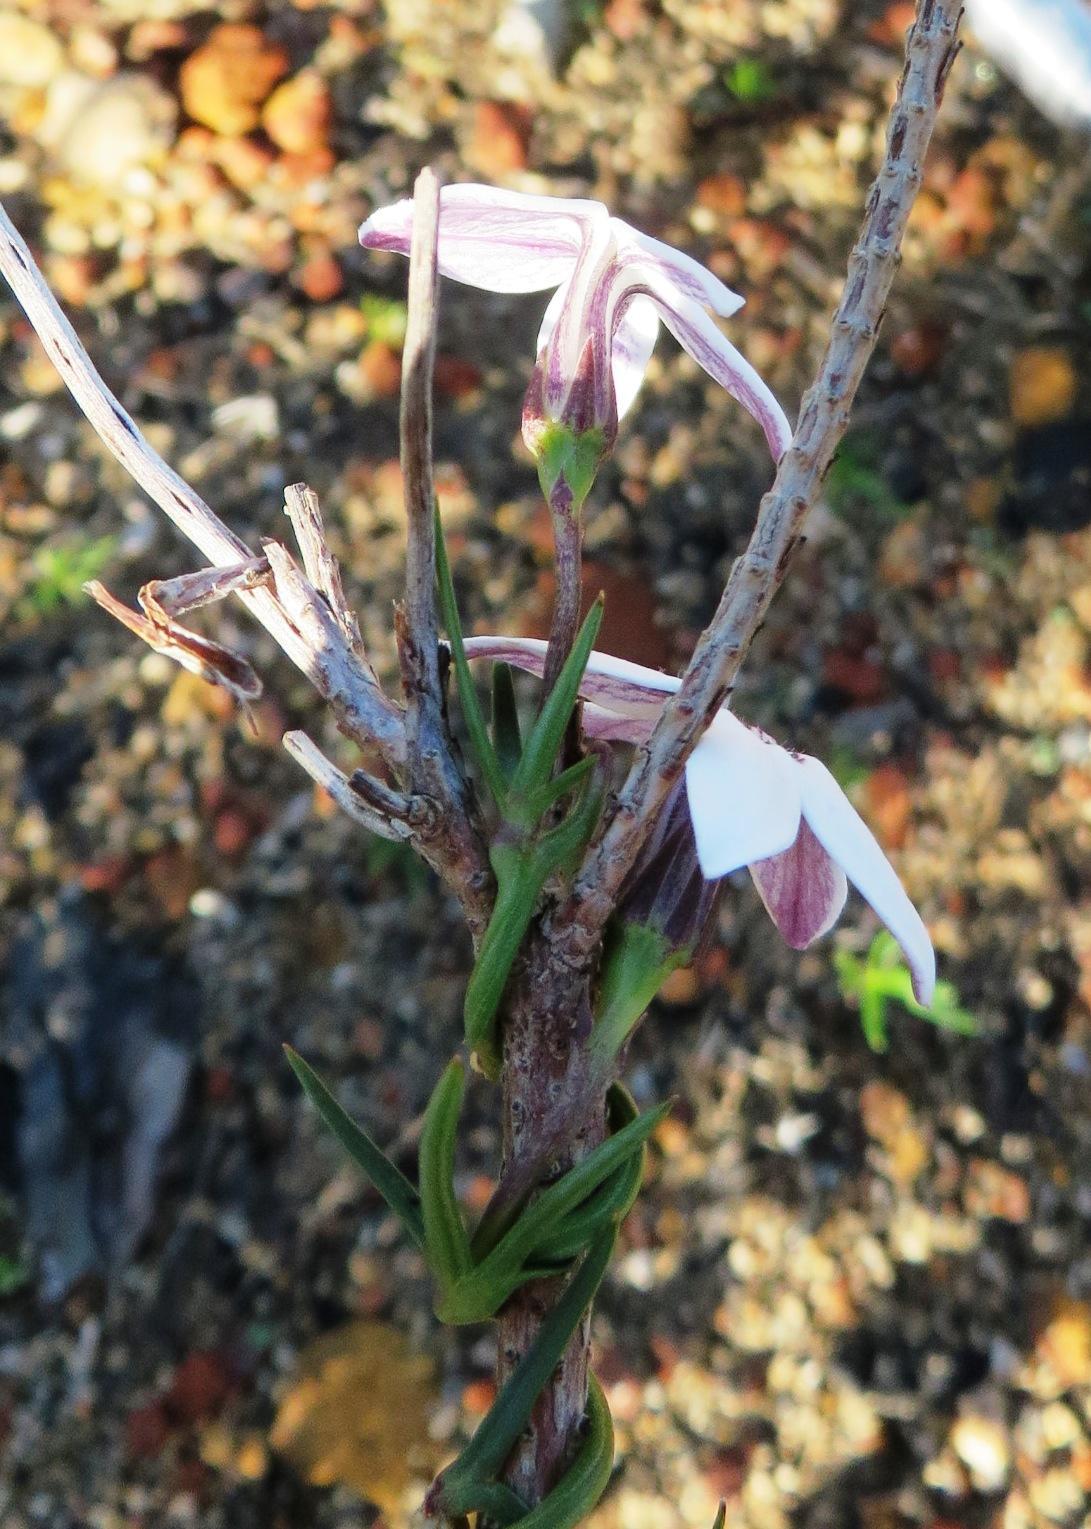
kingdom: Plantae
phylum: Tracheophyta
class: Magnoliopsida
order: Asterales
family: Campanulaceae
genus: Cyphia
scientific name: Cyphia volubilis
